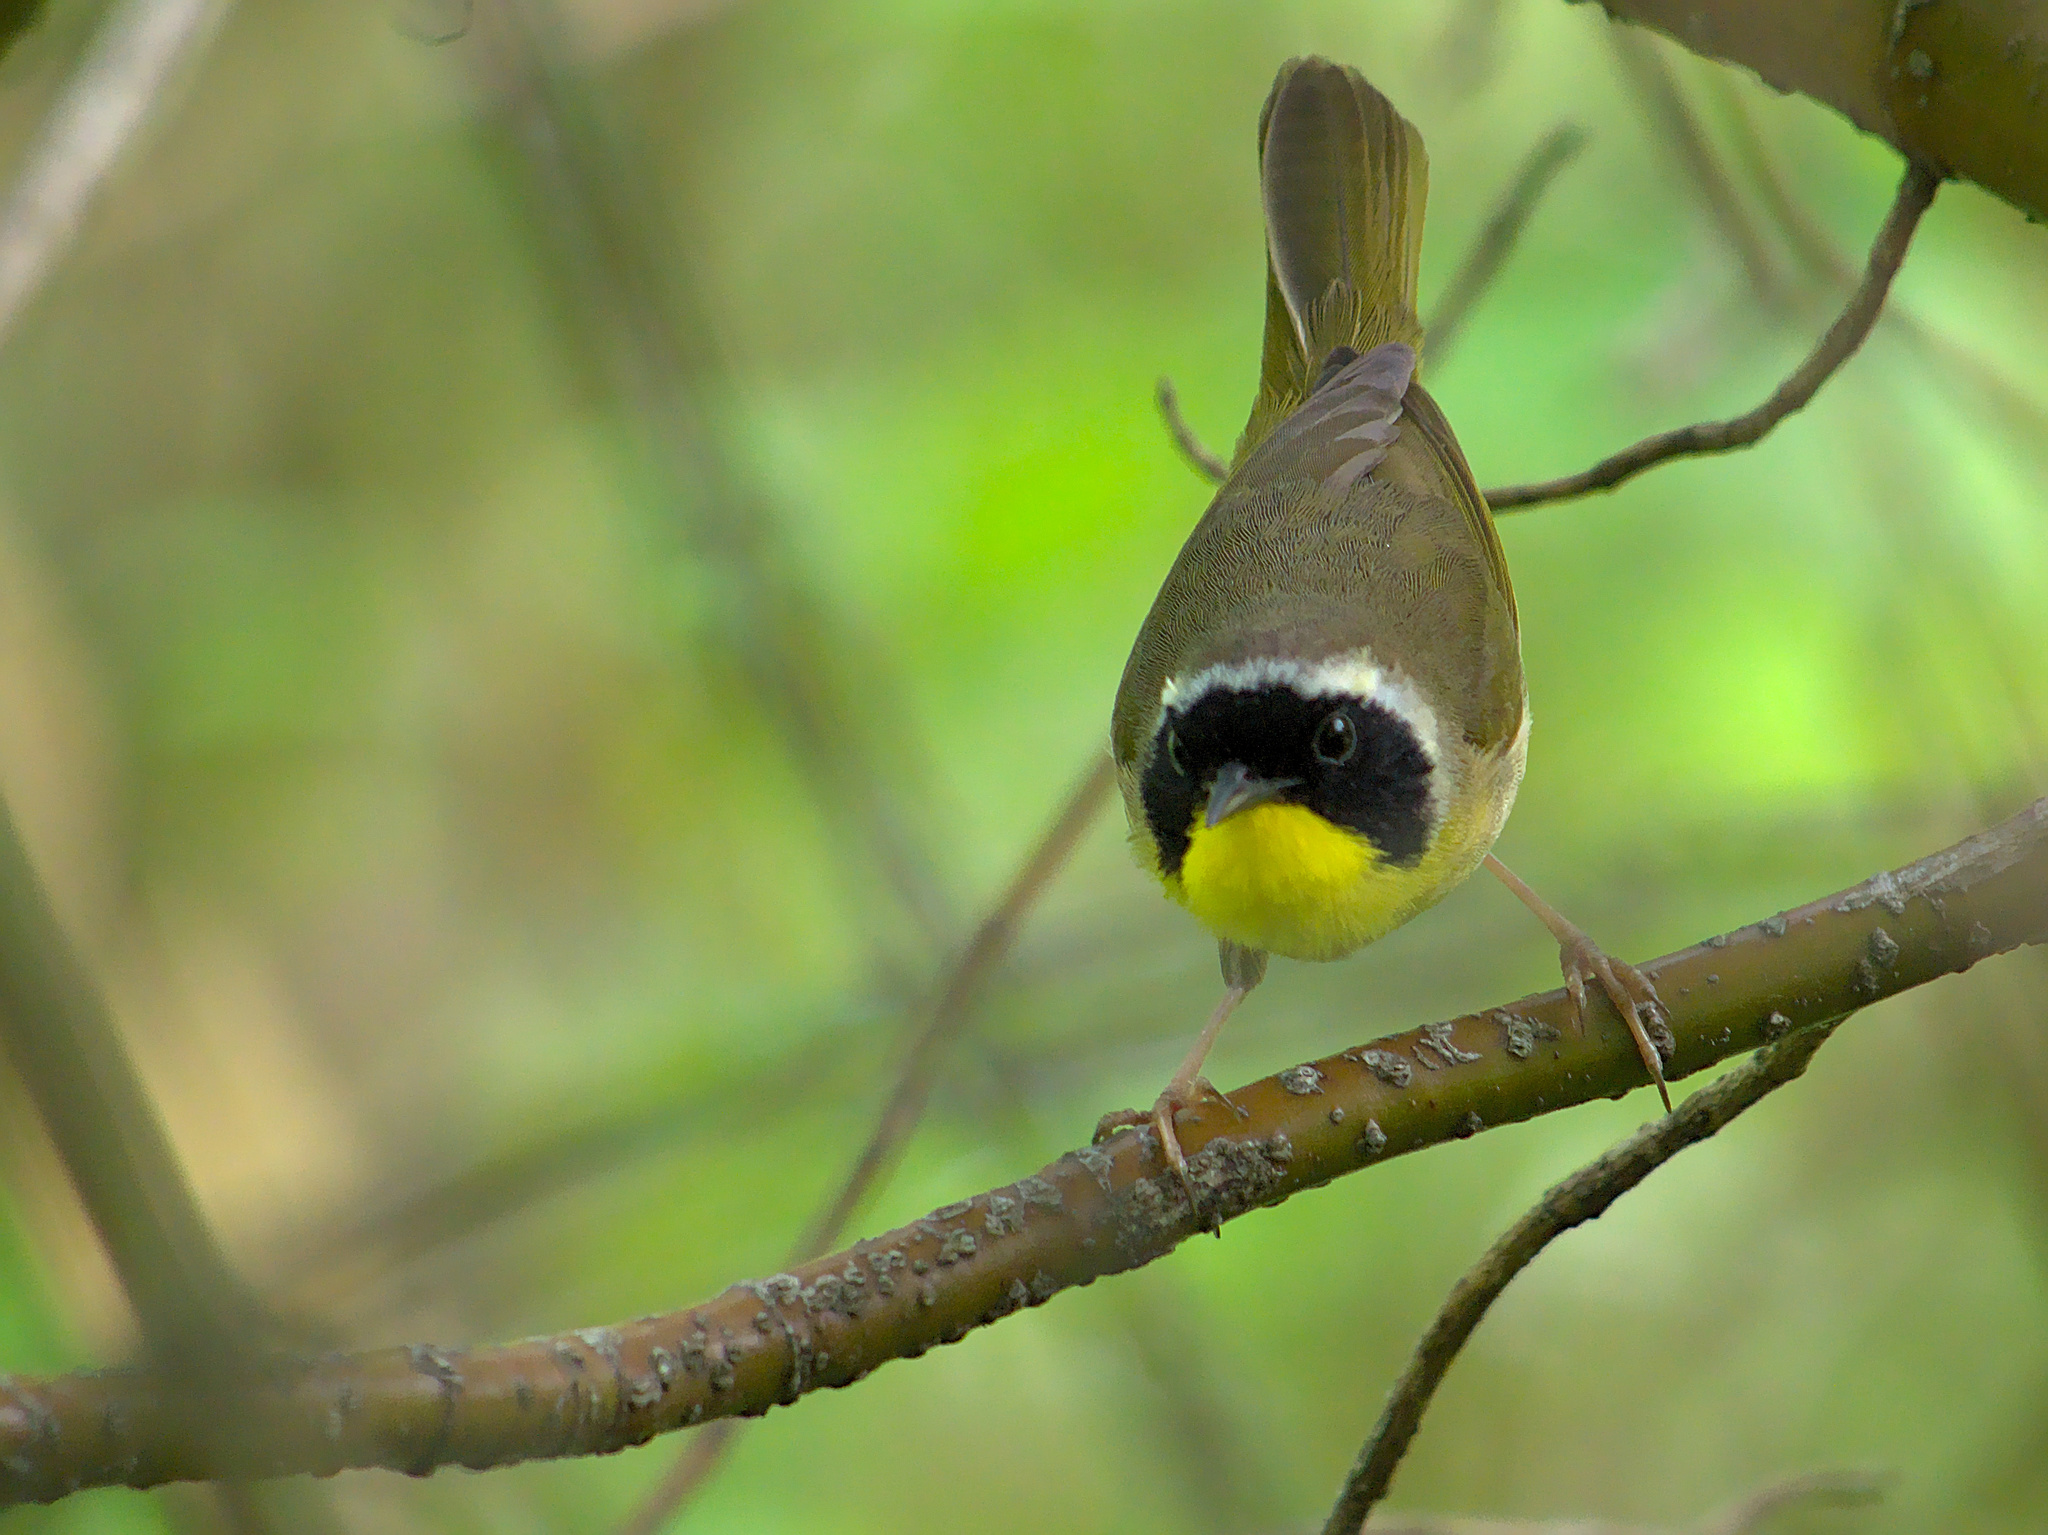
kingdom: Animalia
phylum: Chordata
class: Aves
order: Passeriformes
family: Parulidae
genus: Geothlypis
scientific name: Geothlypis trichas
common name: Common yellowthroat
